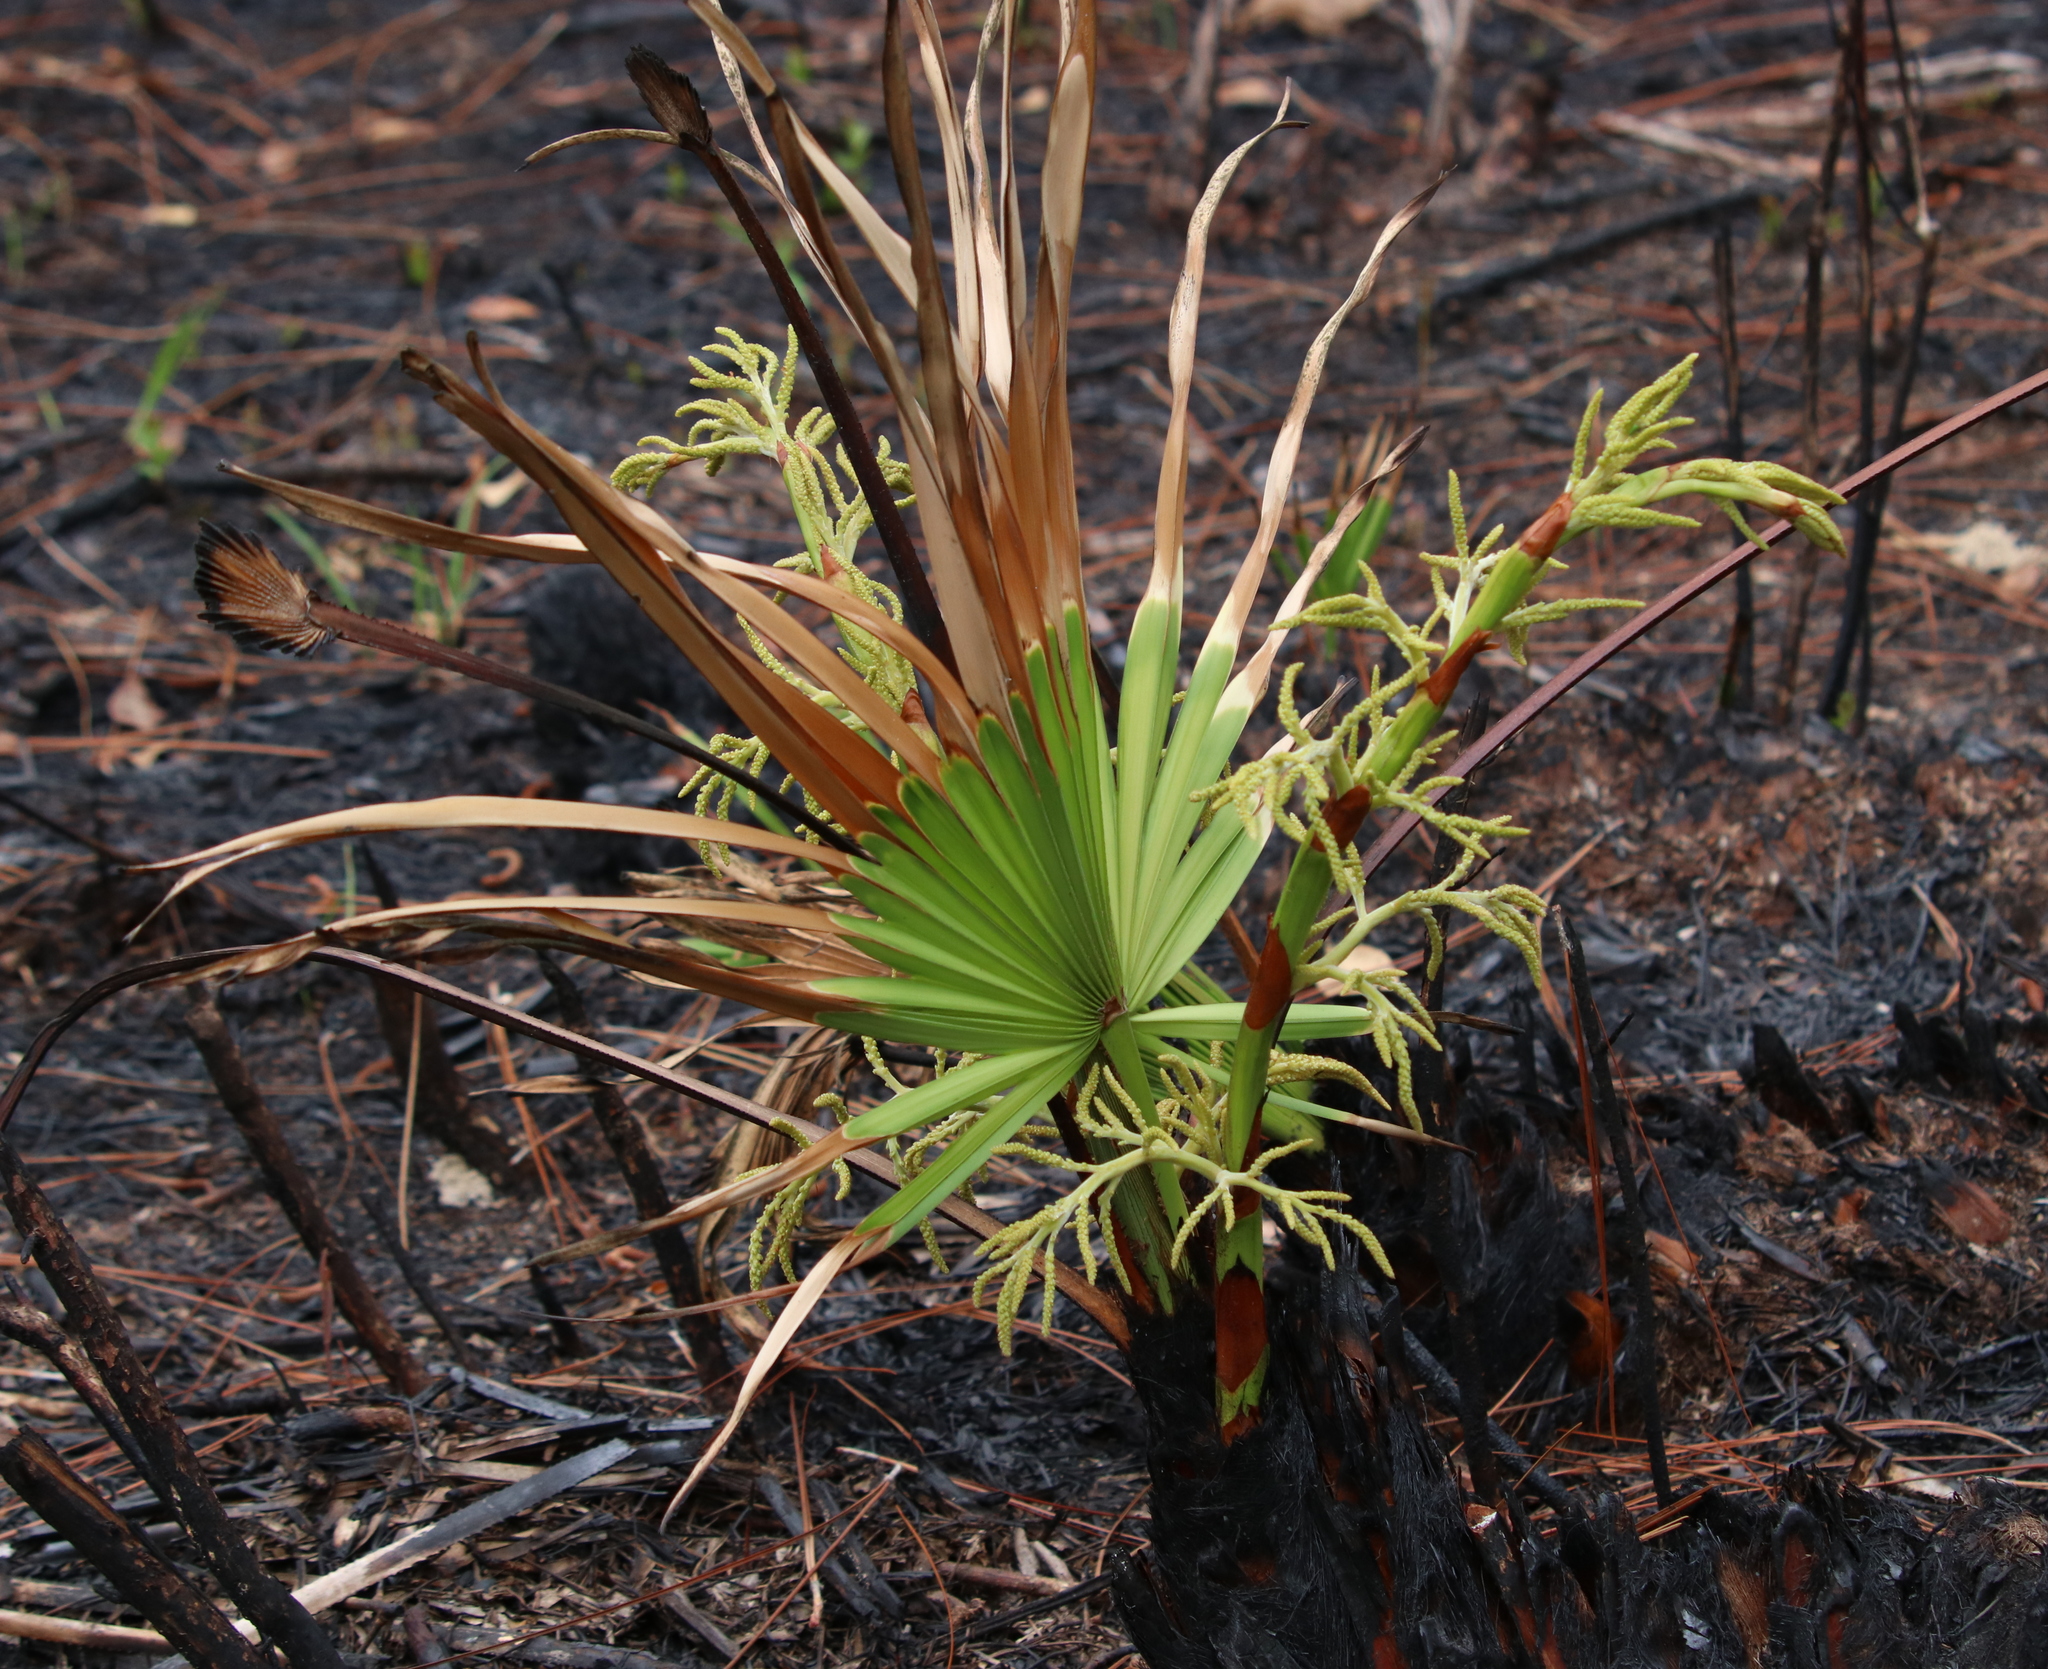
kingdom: Plantae
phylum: Tracheophyta
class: Liliopsida
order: Arecales
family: Arecaceae
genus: Serenoa
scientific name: Serenoa repens
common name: Saw-palmetto
